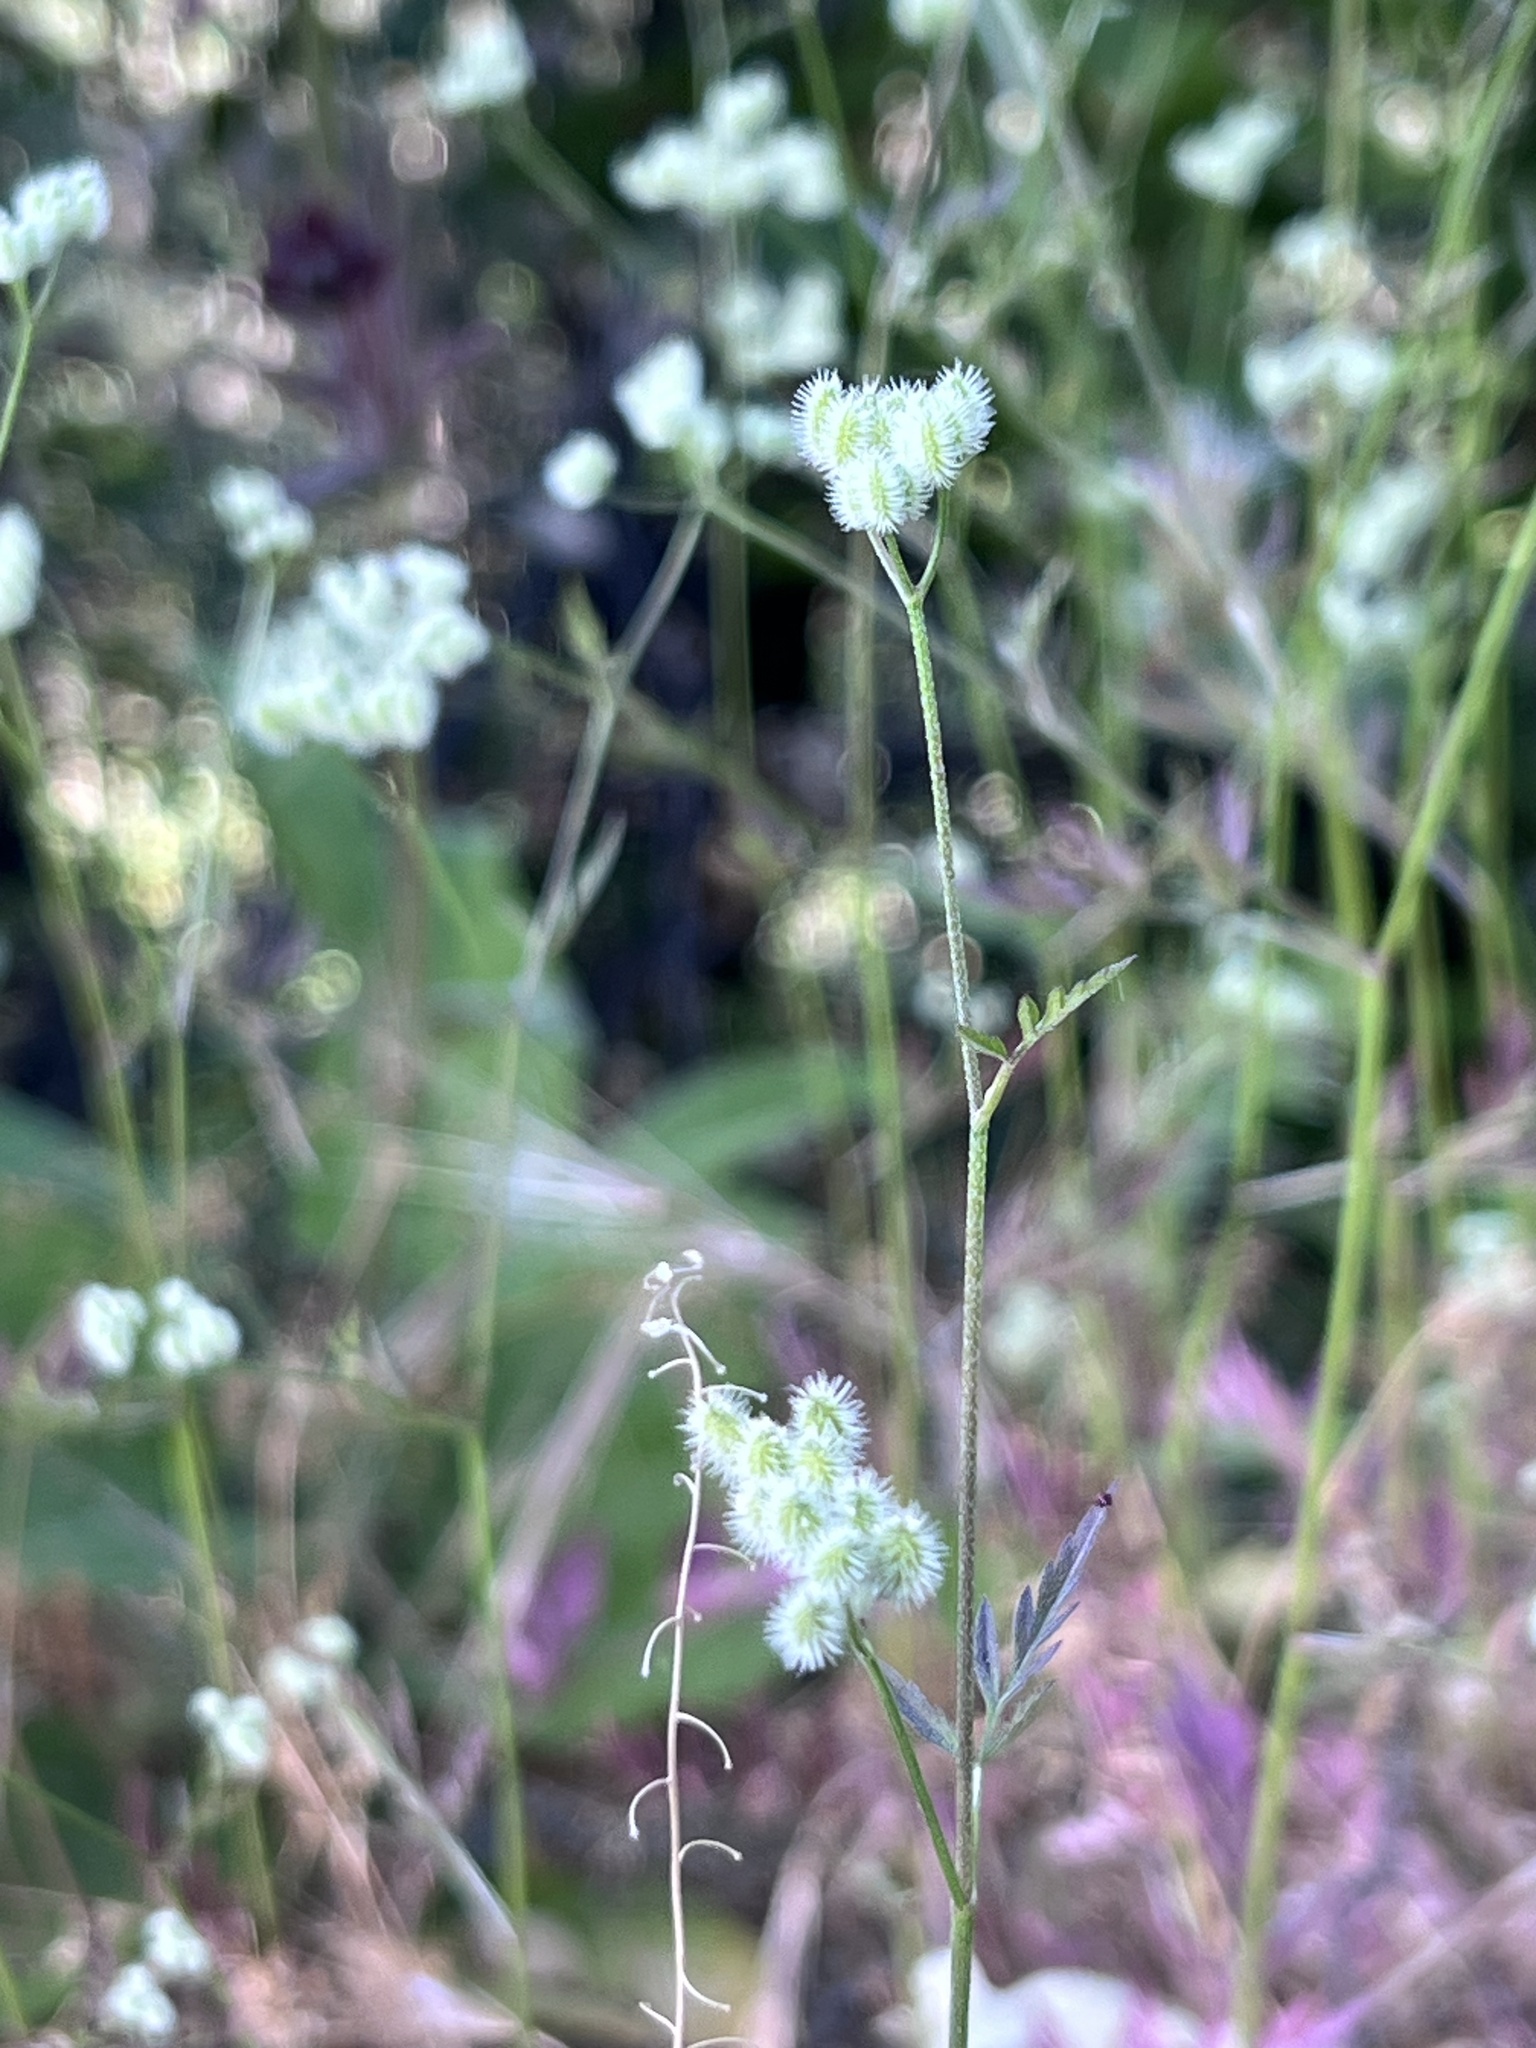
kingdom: Plantae
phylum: Tracheophyta
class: Magnoliopsida
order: Apiales
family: Apiaceae
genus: Torilis
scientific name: Torilis arvensis
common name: Spreading hedge-parsley
